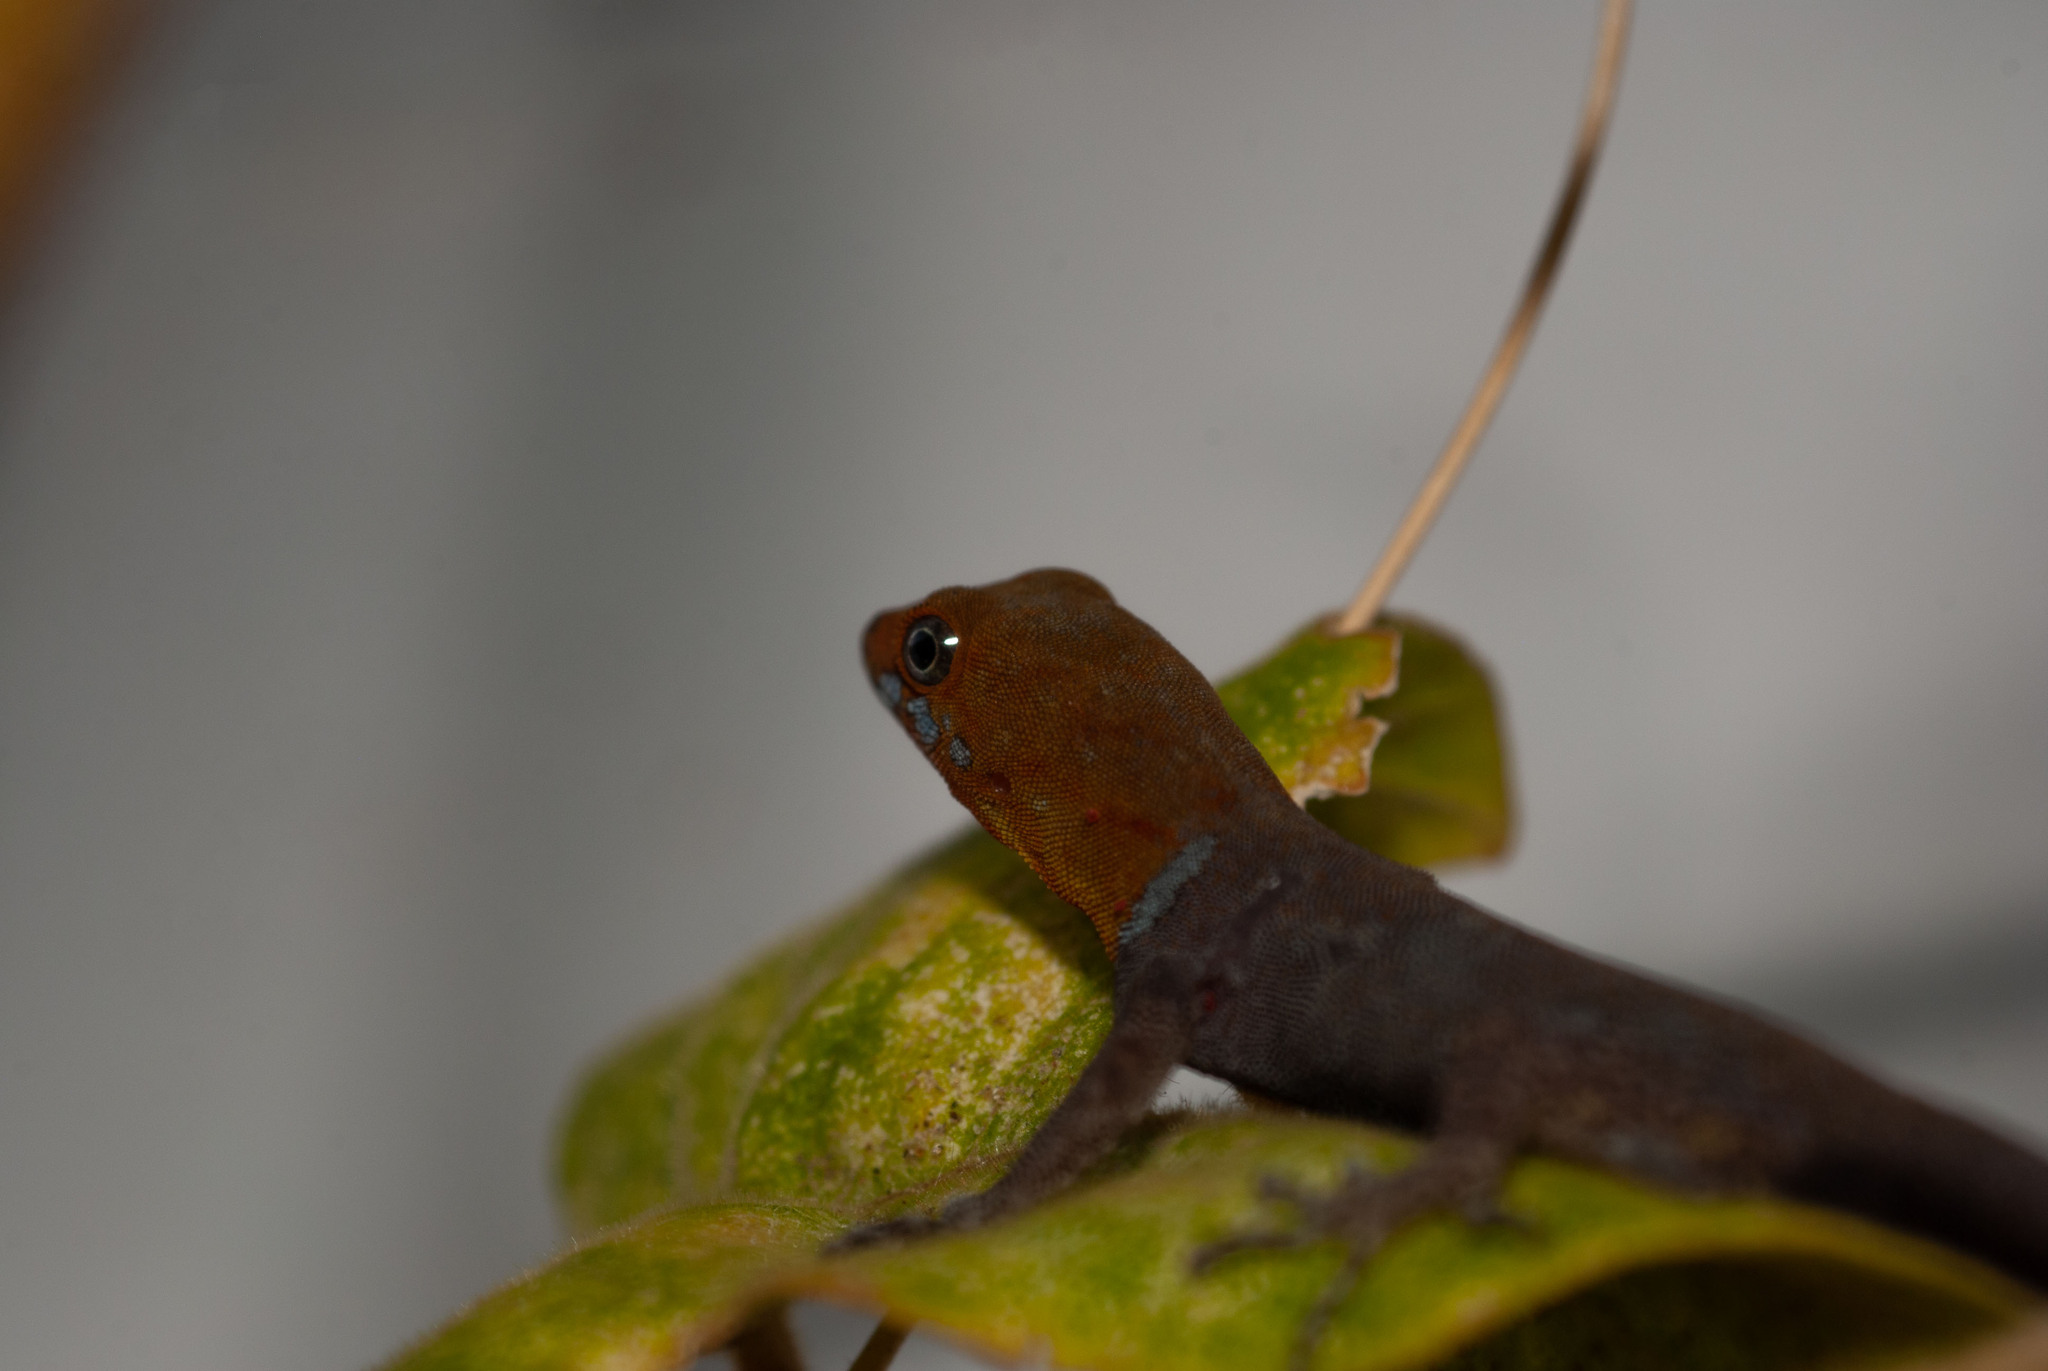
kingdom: Animalia
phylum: Chordata
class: Squamata
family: Sphaerodactylidae
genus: Gonatodes
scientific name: Gonatodes albogularis
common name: Yellow-headed gecko
